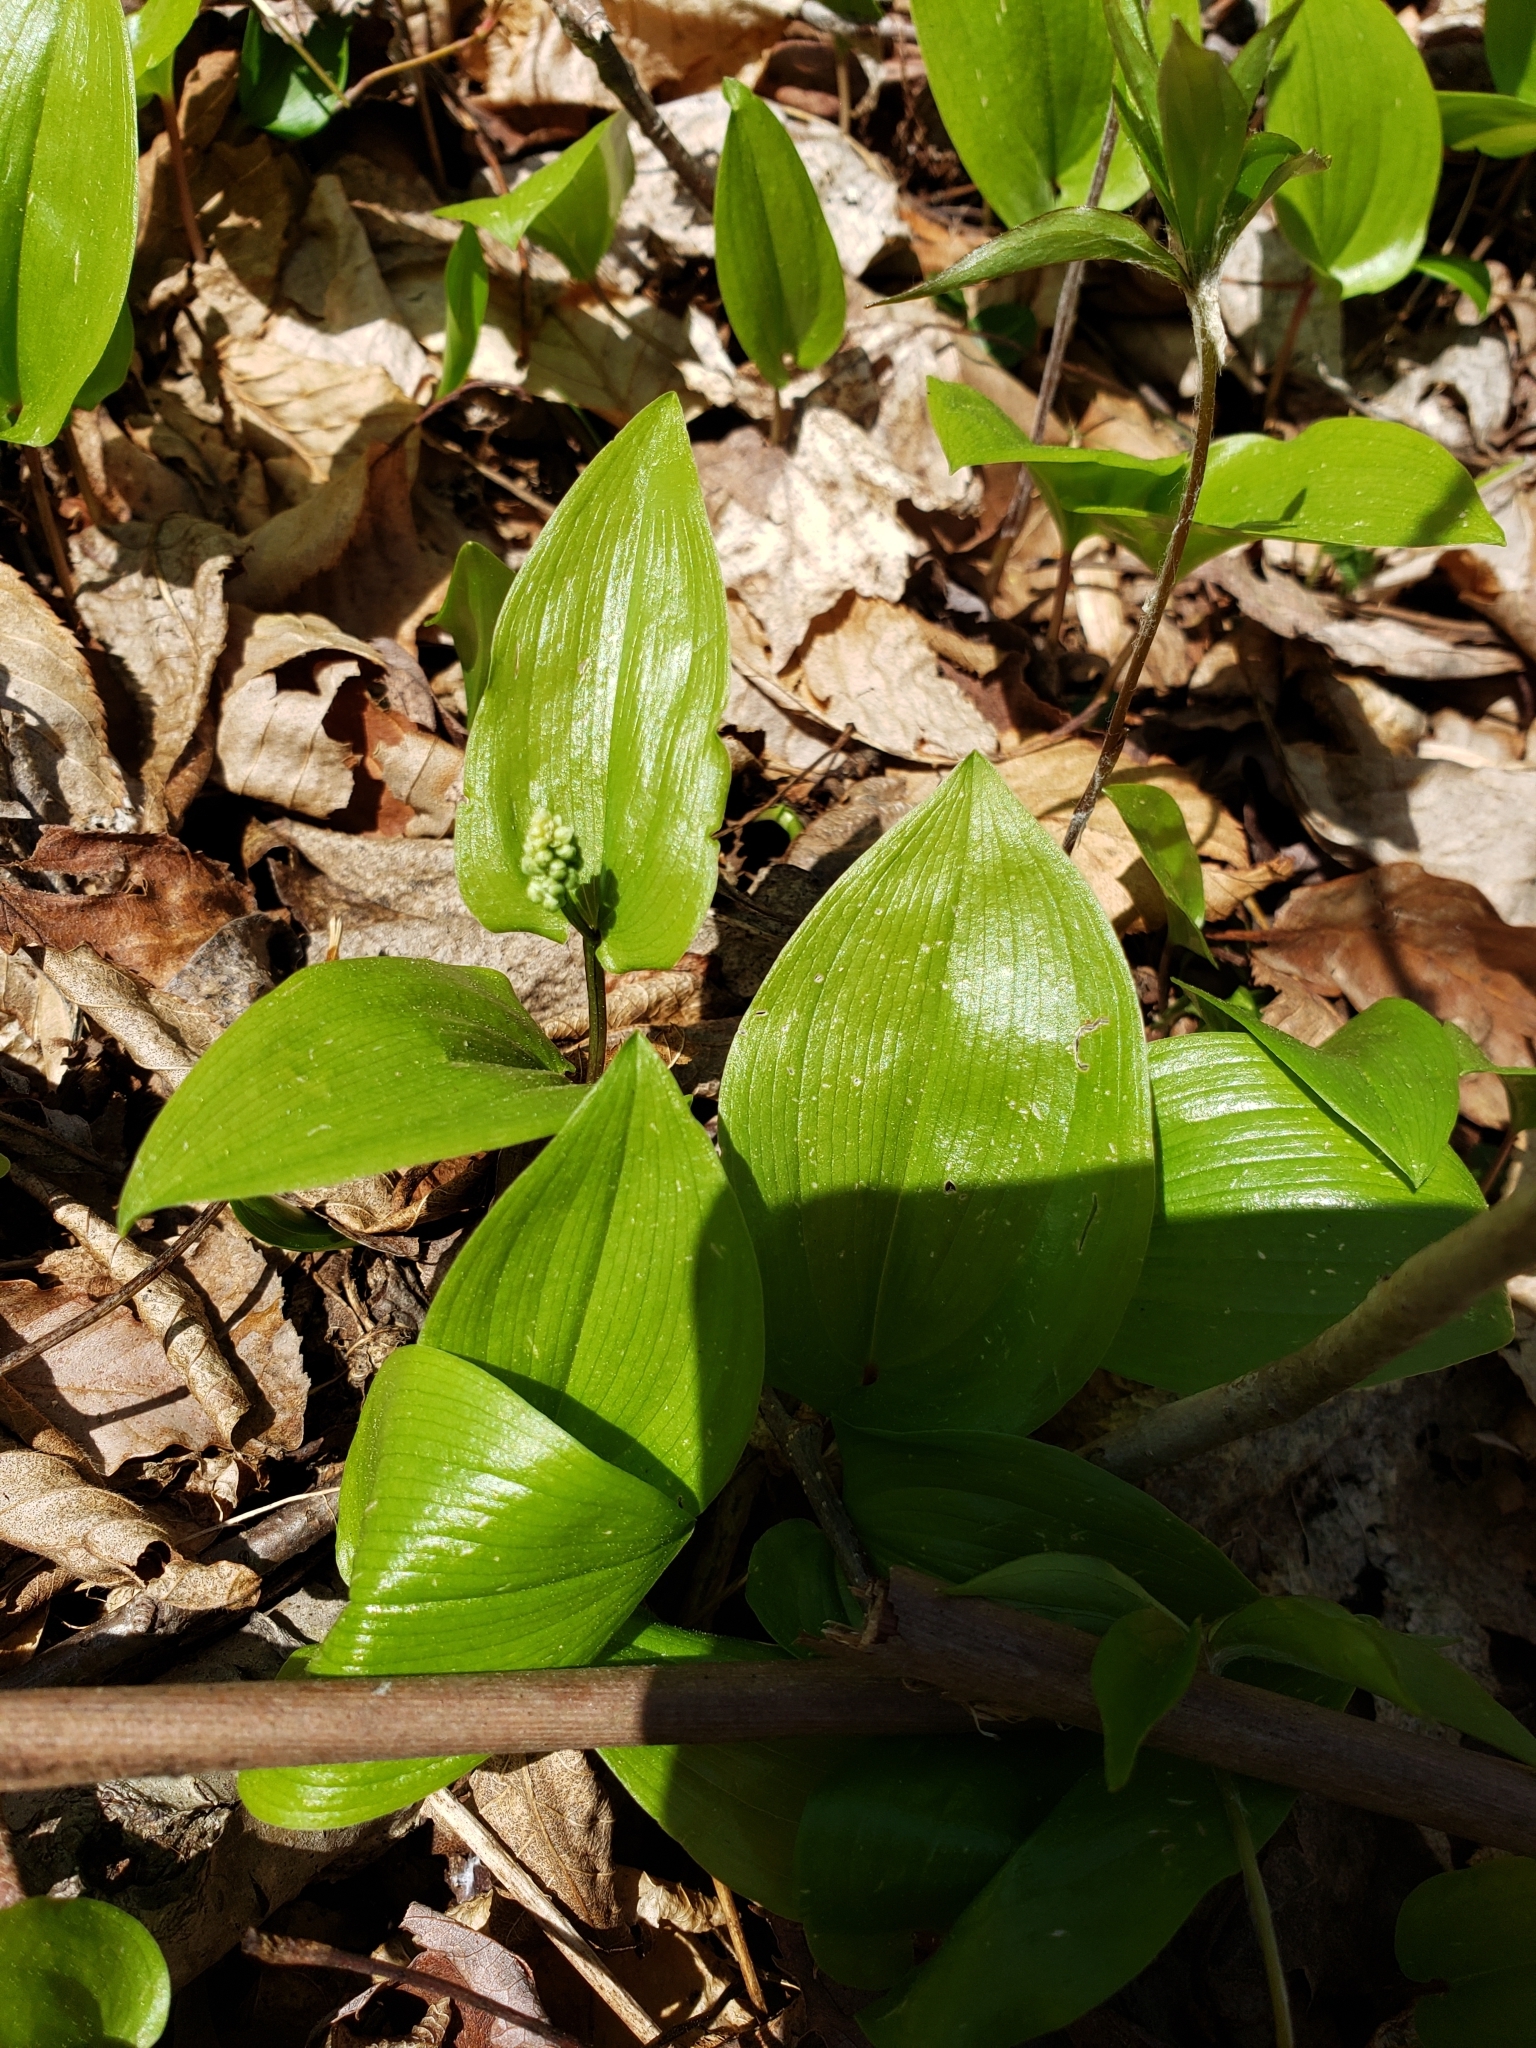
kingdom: Plantae
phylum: Tracheophyta
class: Liliopsida
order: Asparagales
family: Asparagaceae
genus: Maianthemum
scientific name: Maianthemum canadense
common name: False lily-of-the-valley
